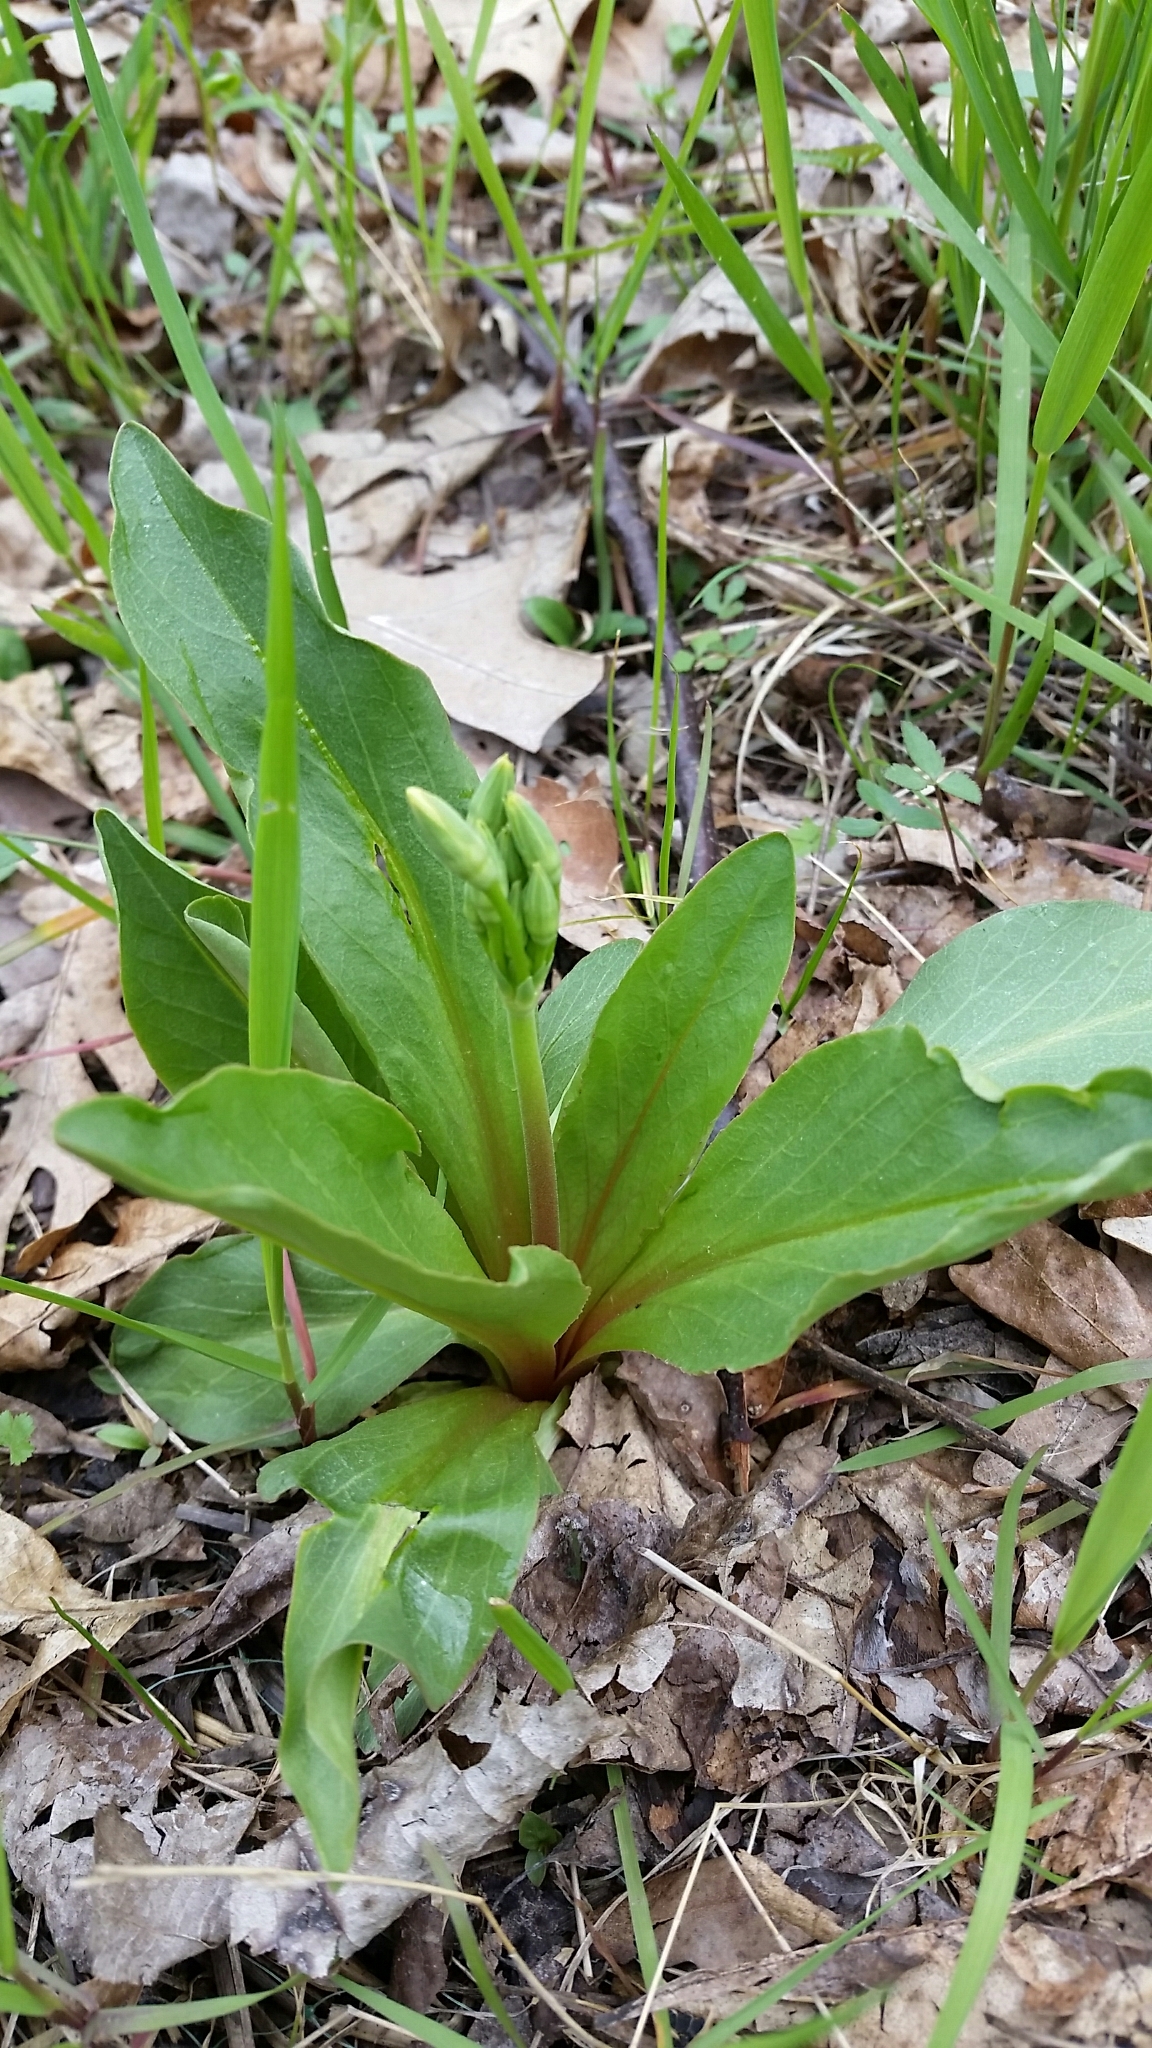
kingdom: Plantae
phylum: Tracheophyta
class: Magnoliopsida
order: Ericales
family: Primulaceae
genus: Dodecatheon
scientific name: Dodecatheon meadia
